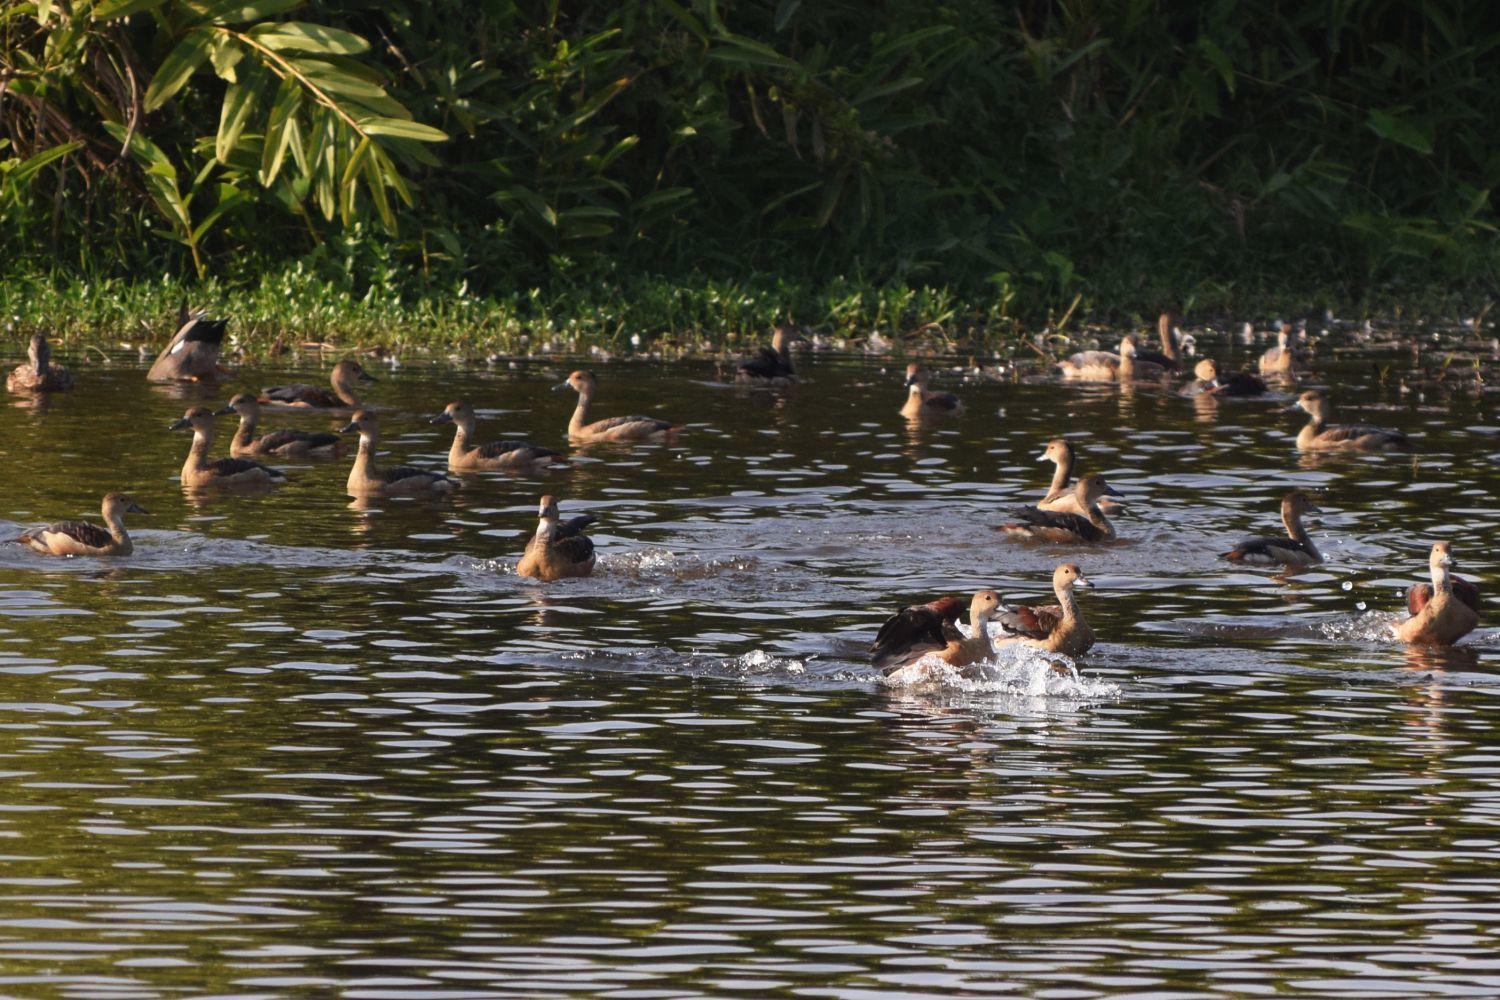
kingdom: Animalia
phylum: Chordata
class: Aves
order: Anseriformes
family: Anatidae
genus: Dendrocygna
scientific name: Dendrocygna javanica
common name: Lesser whistling-duck
